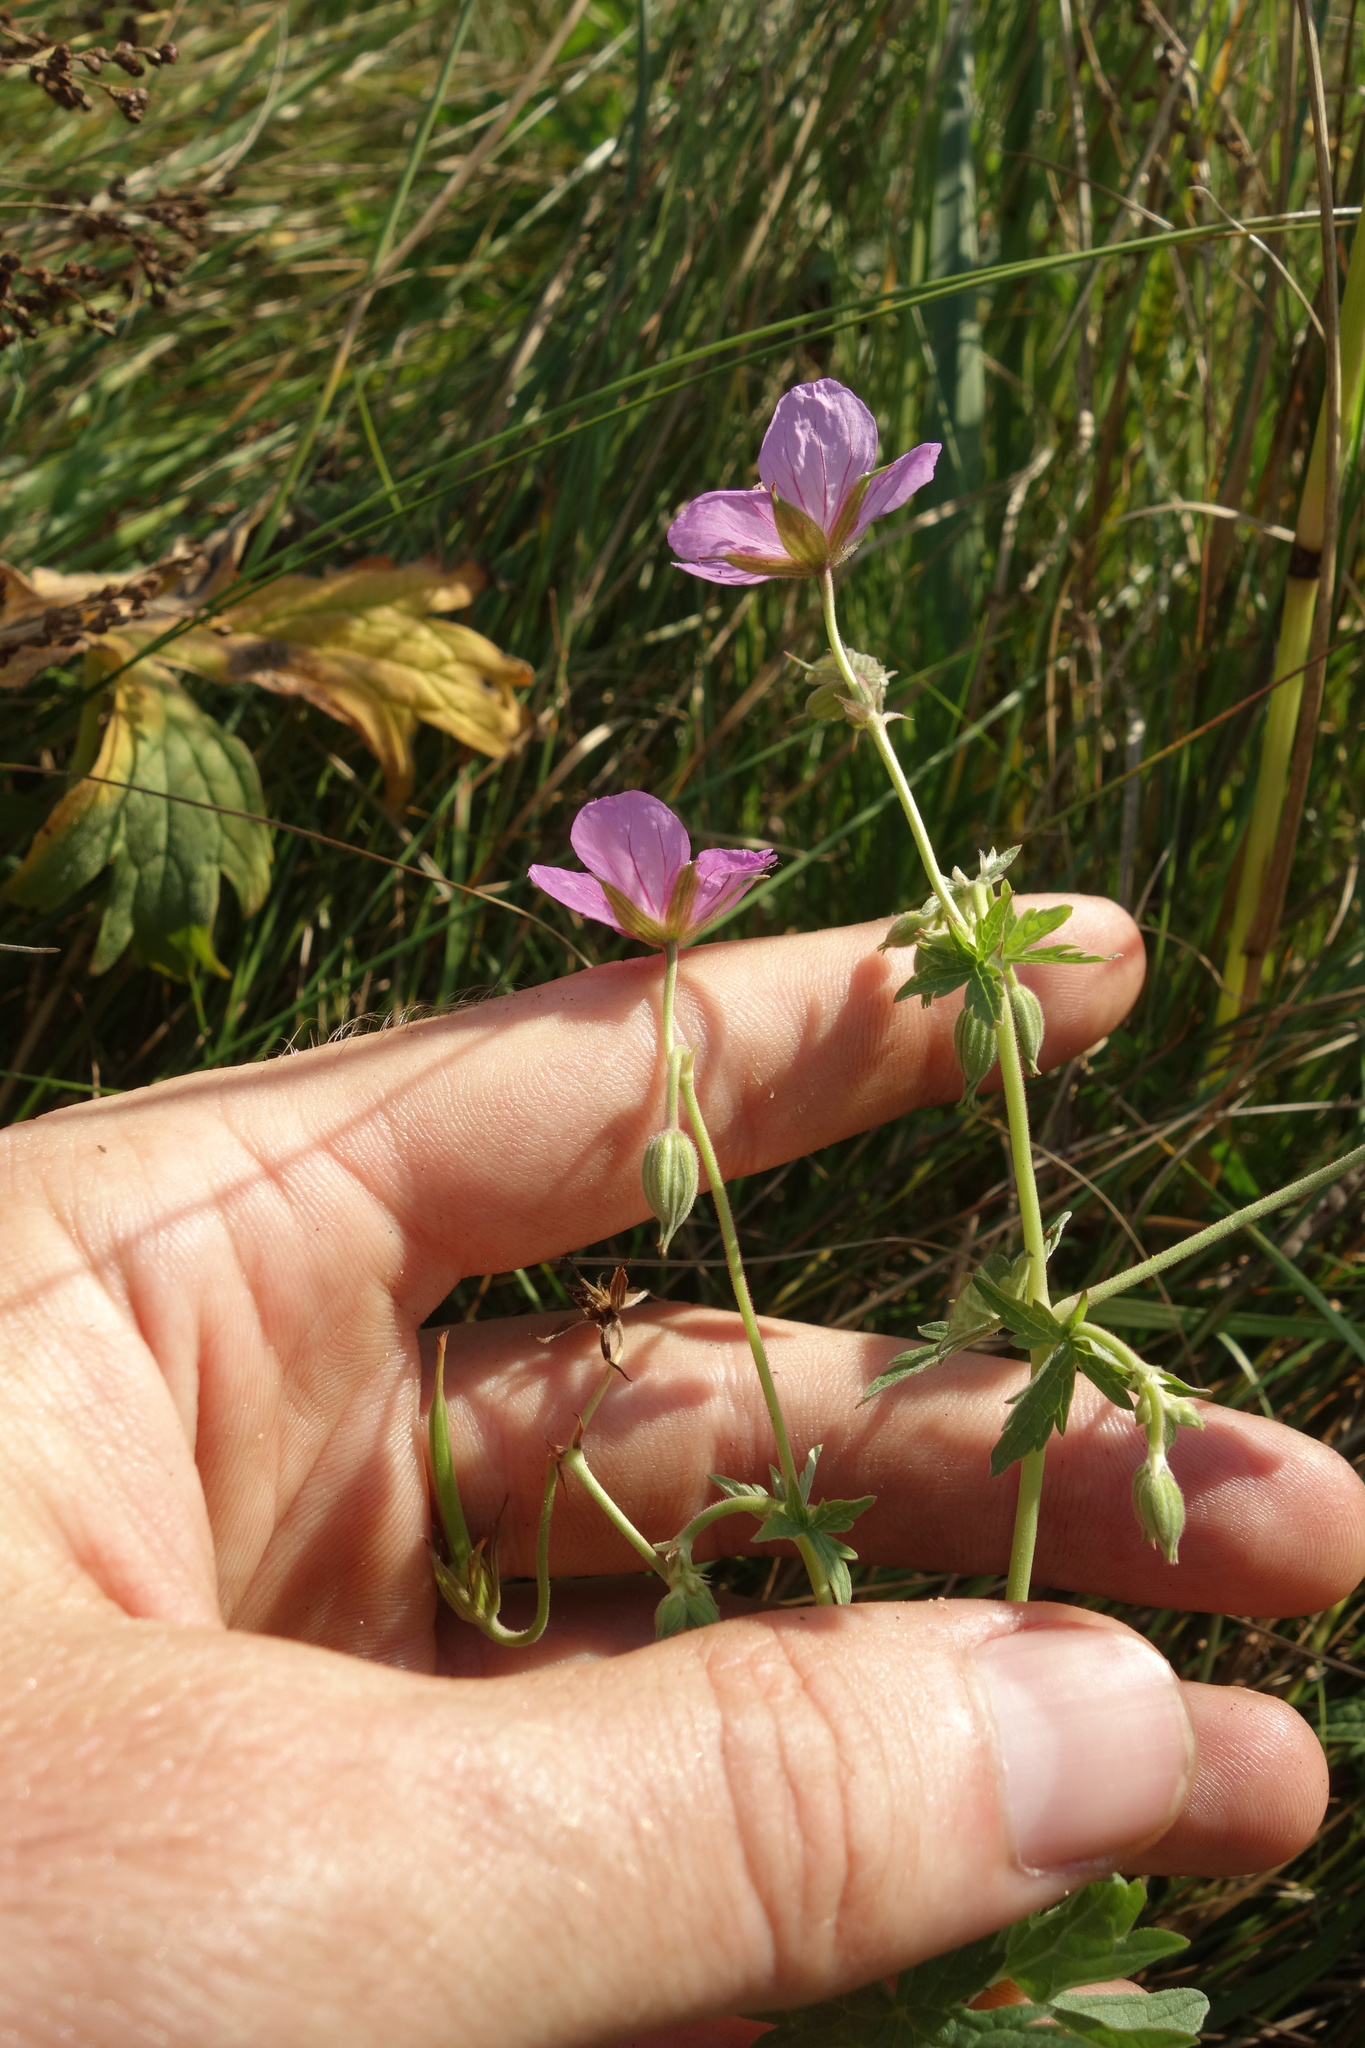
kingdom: Plantae
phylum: Tracheophyta
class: Magnoliopsida
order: Geraniales
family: Geraniaceae
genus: Geranium
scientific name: Geranium collinum
